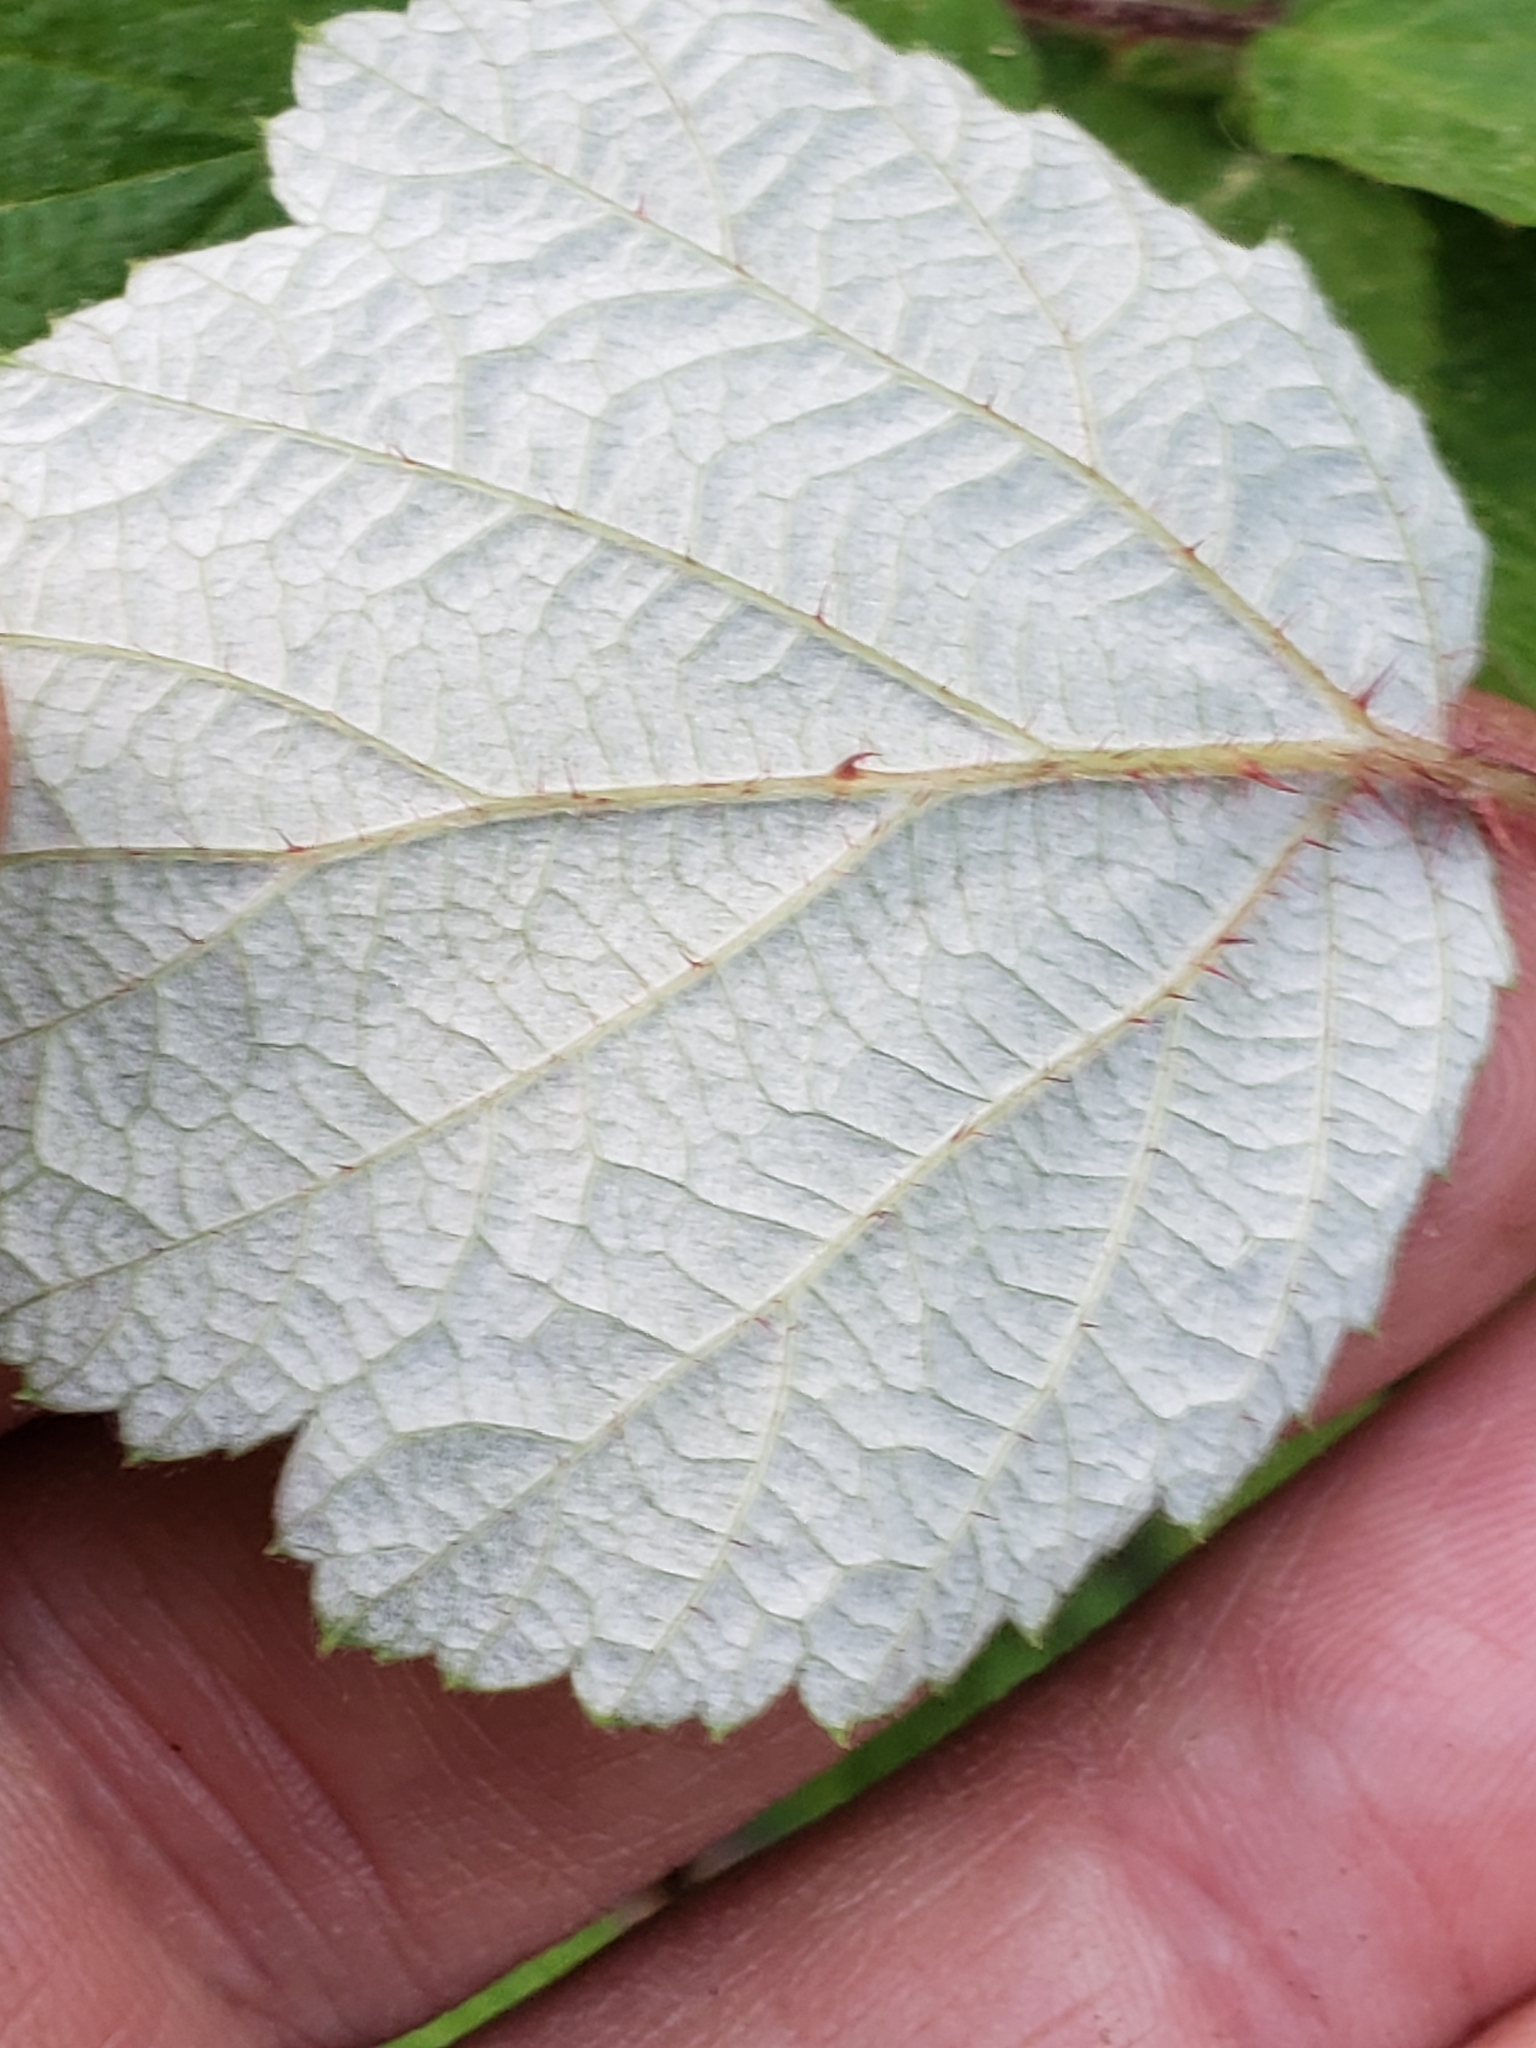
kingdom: Plantae
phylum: Tracheophyta
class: Magnoliopsida
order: Rosales
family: Rosaceae
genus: Rubus
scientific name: Rubus phoenicolasius
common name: Japanese wineberry
